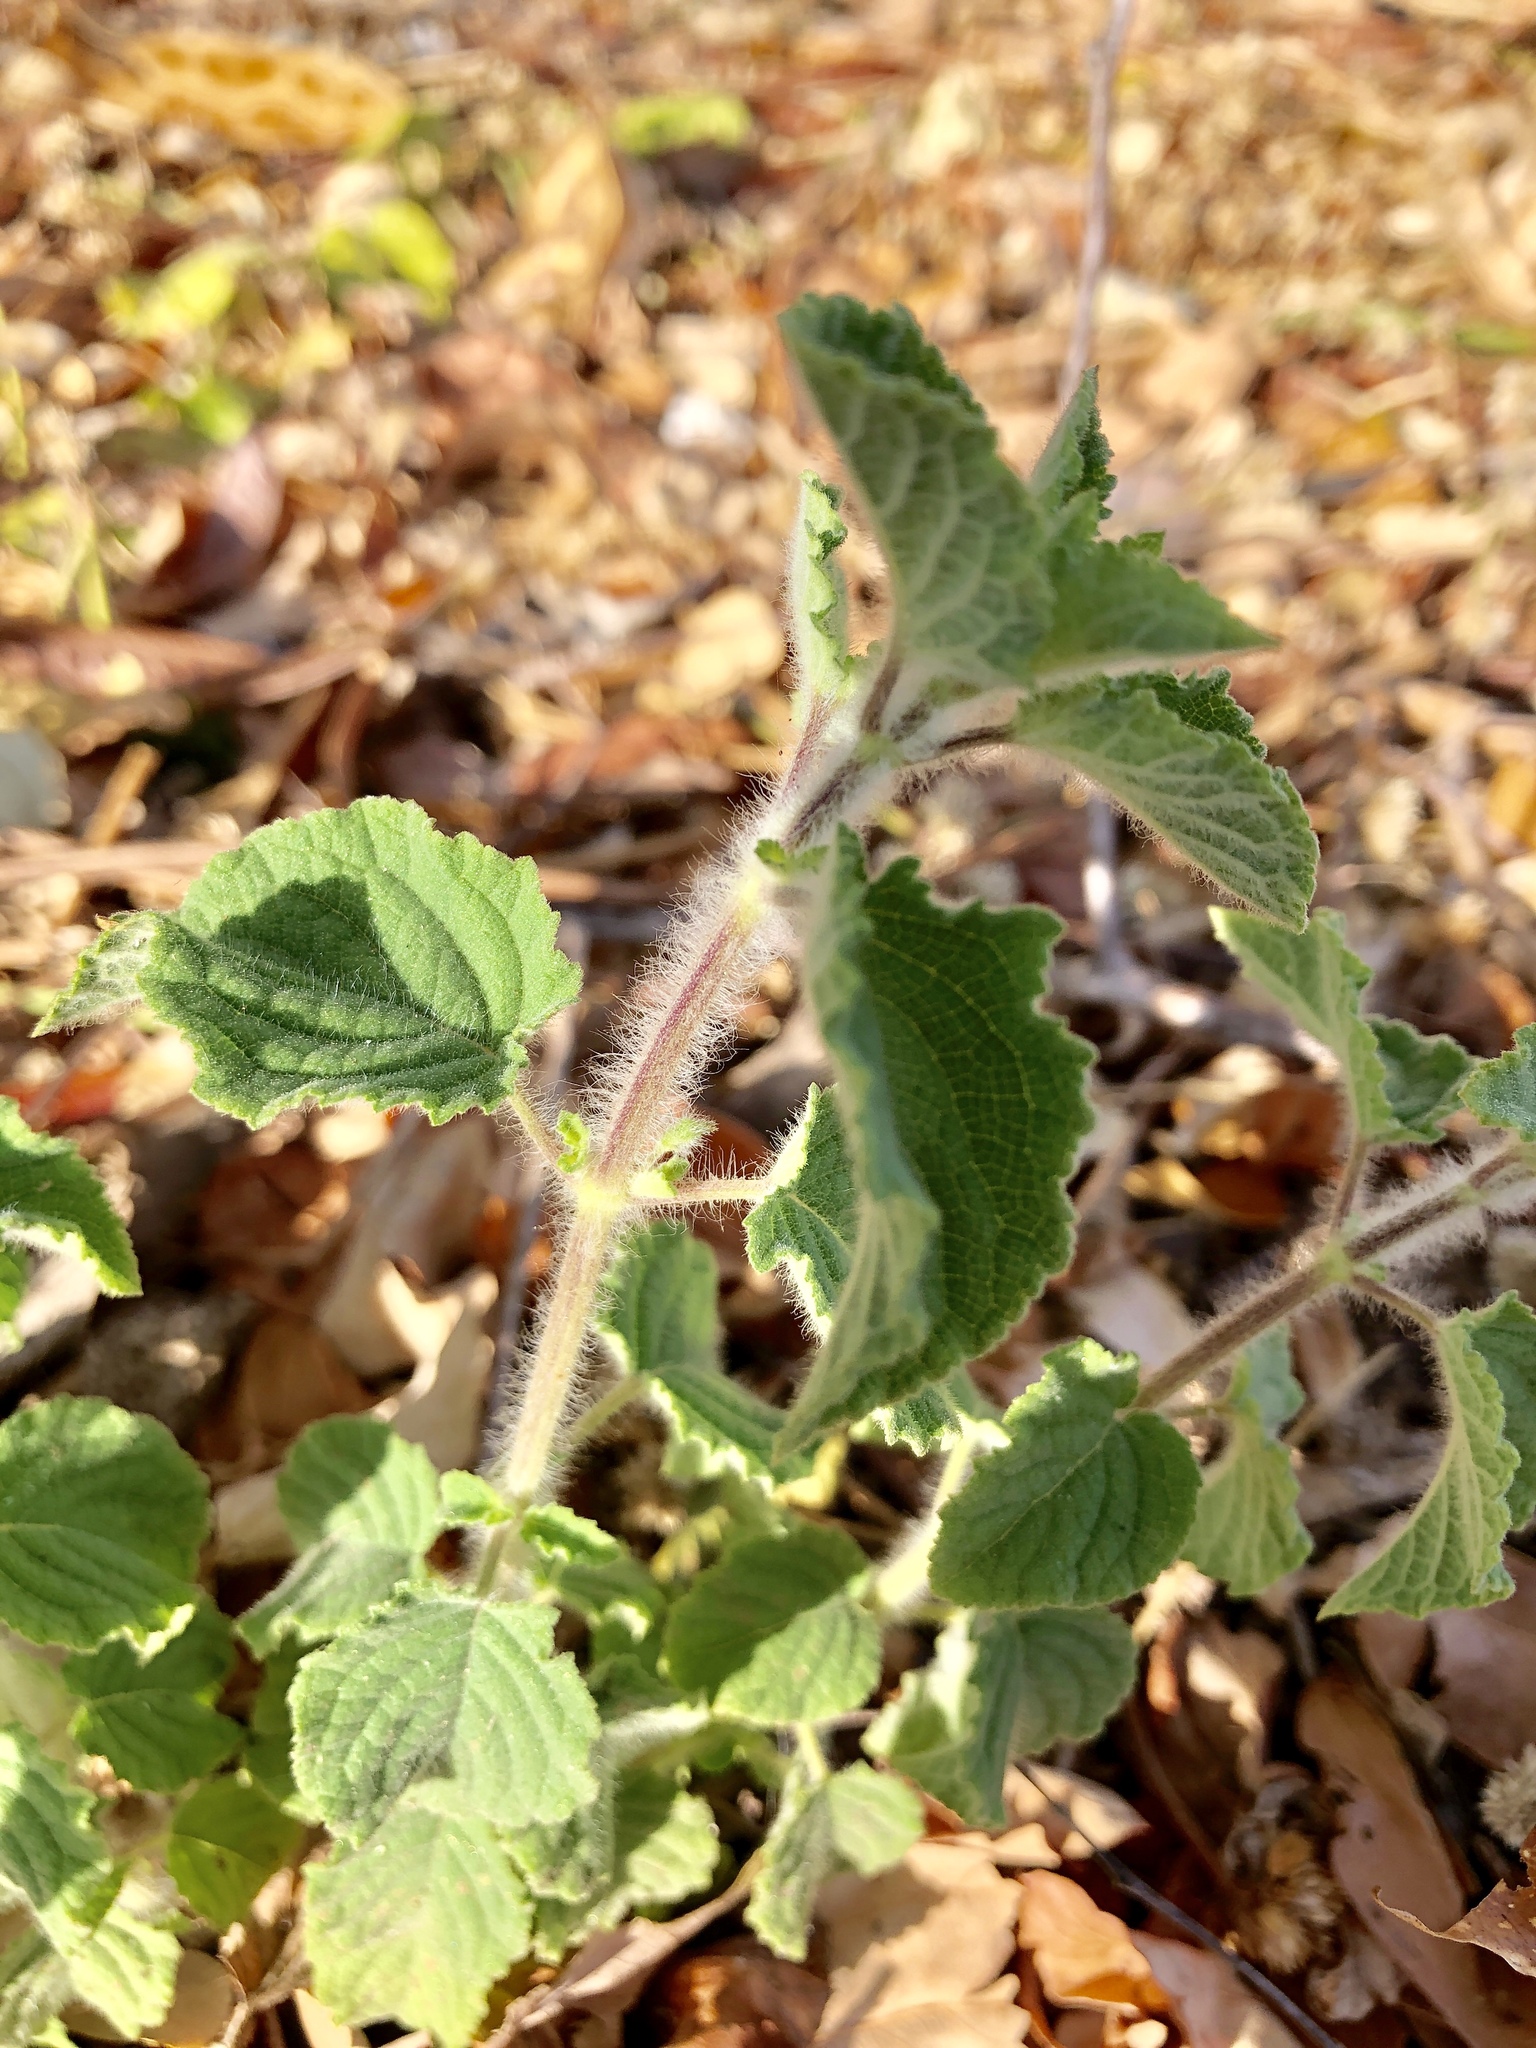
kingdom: Plantae
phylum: Tracheophyta
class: Magnoliopsida
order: Lamiales
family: Lamiaceae
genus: Mesosphaerum
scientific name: Mesosphaerum suaveolens
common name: Pignut
